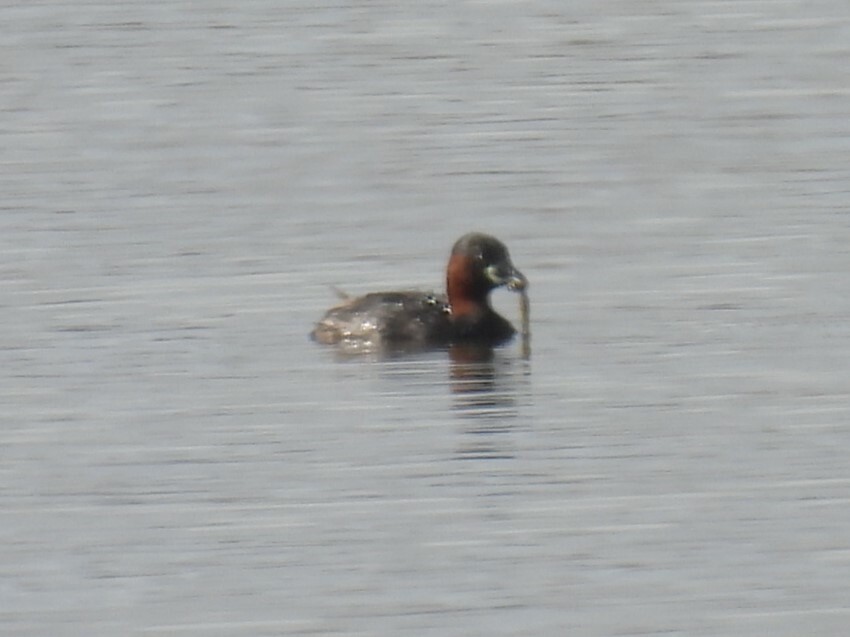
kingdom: Animalia
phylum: Chordata
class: Aves
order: Podicipediformes
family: Podicipedidae
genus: Tachybaptus
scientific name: Tachybaptus ruficollis
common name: Little grebe
